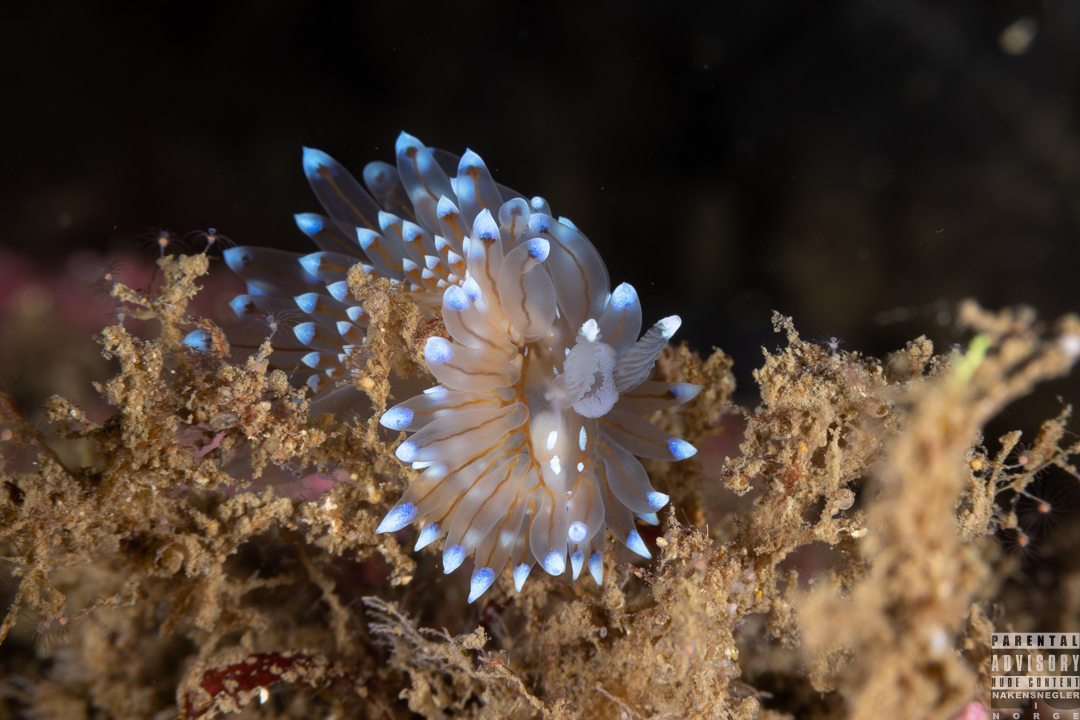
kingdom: Animalia
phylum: Mollusca
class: Gastropoda
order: Nudibranchia
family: Janolidae
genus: Antiopella
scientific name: Antiopella cristata
